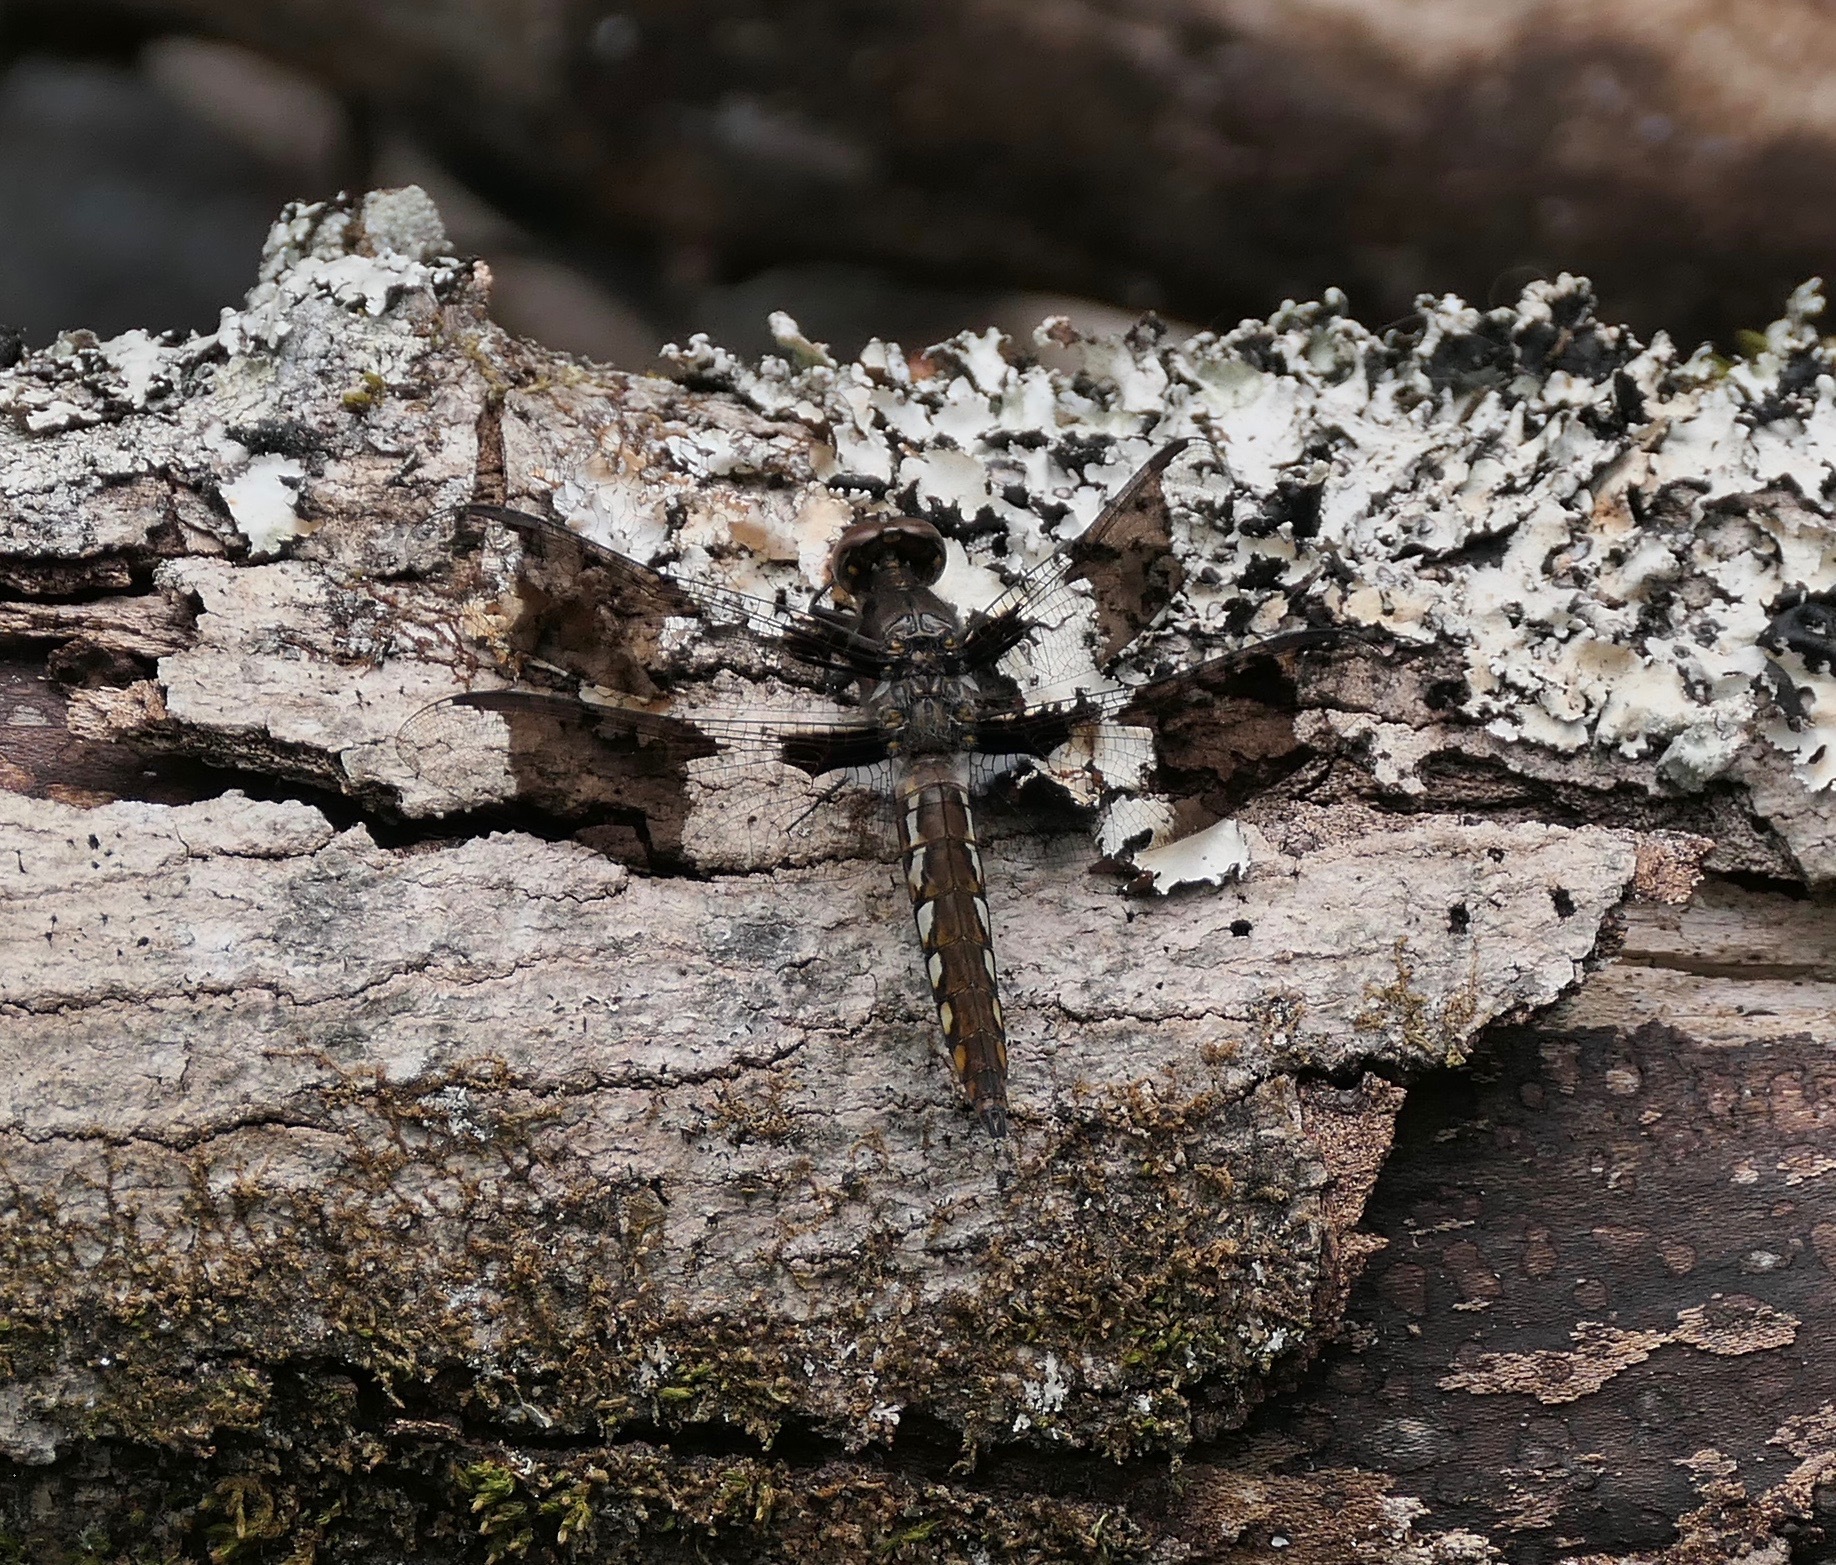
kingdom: Animalia
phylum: Arthropoda
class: Insecta
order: Odonata
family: Libellulidae
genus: Plathemis
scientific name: Plathemis lydia
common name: Common whitetail
